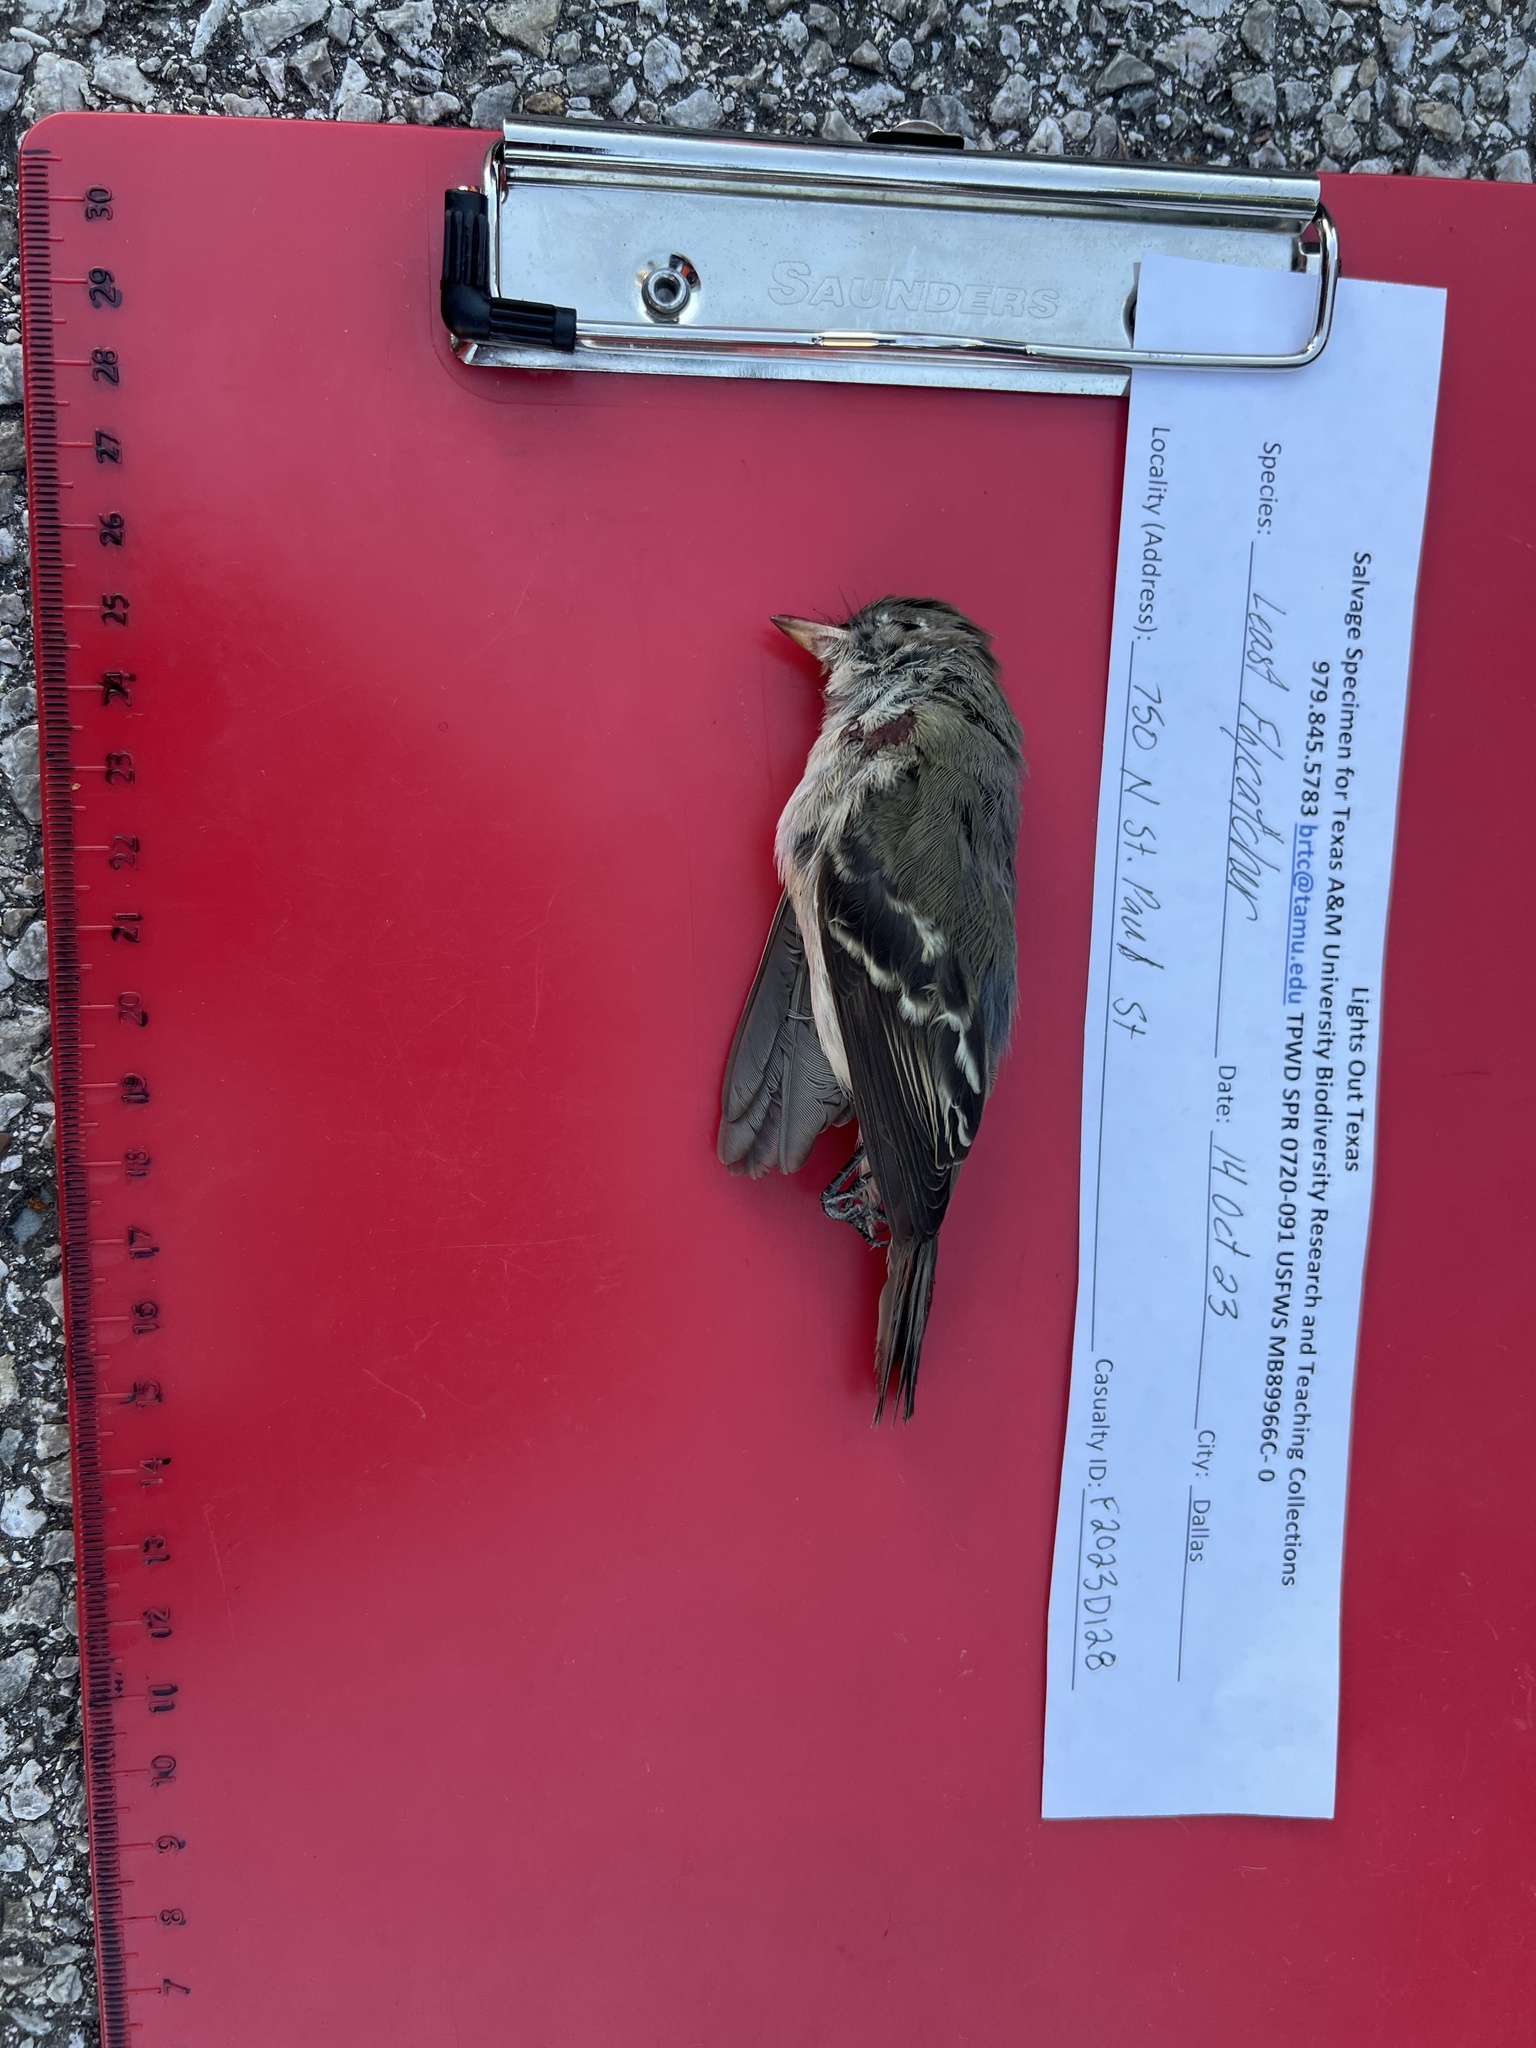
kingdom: Animalia
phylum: Chordata
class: Aves
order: Passeriformes
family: Tyrannidae
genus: Empidonax
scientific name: Empidonax minimus
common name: Least flycatcher
